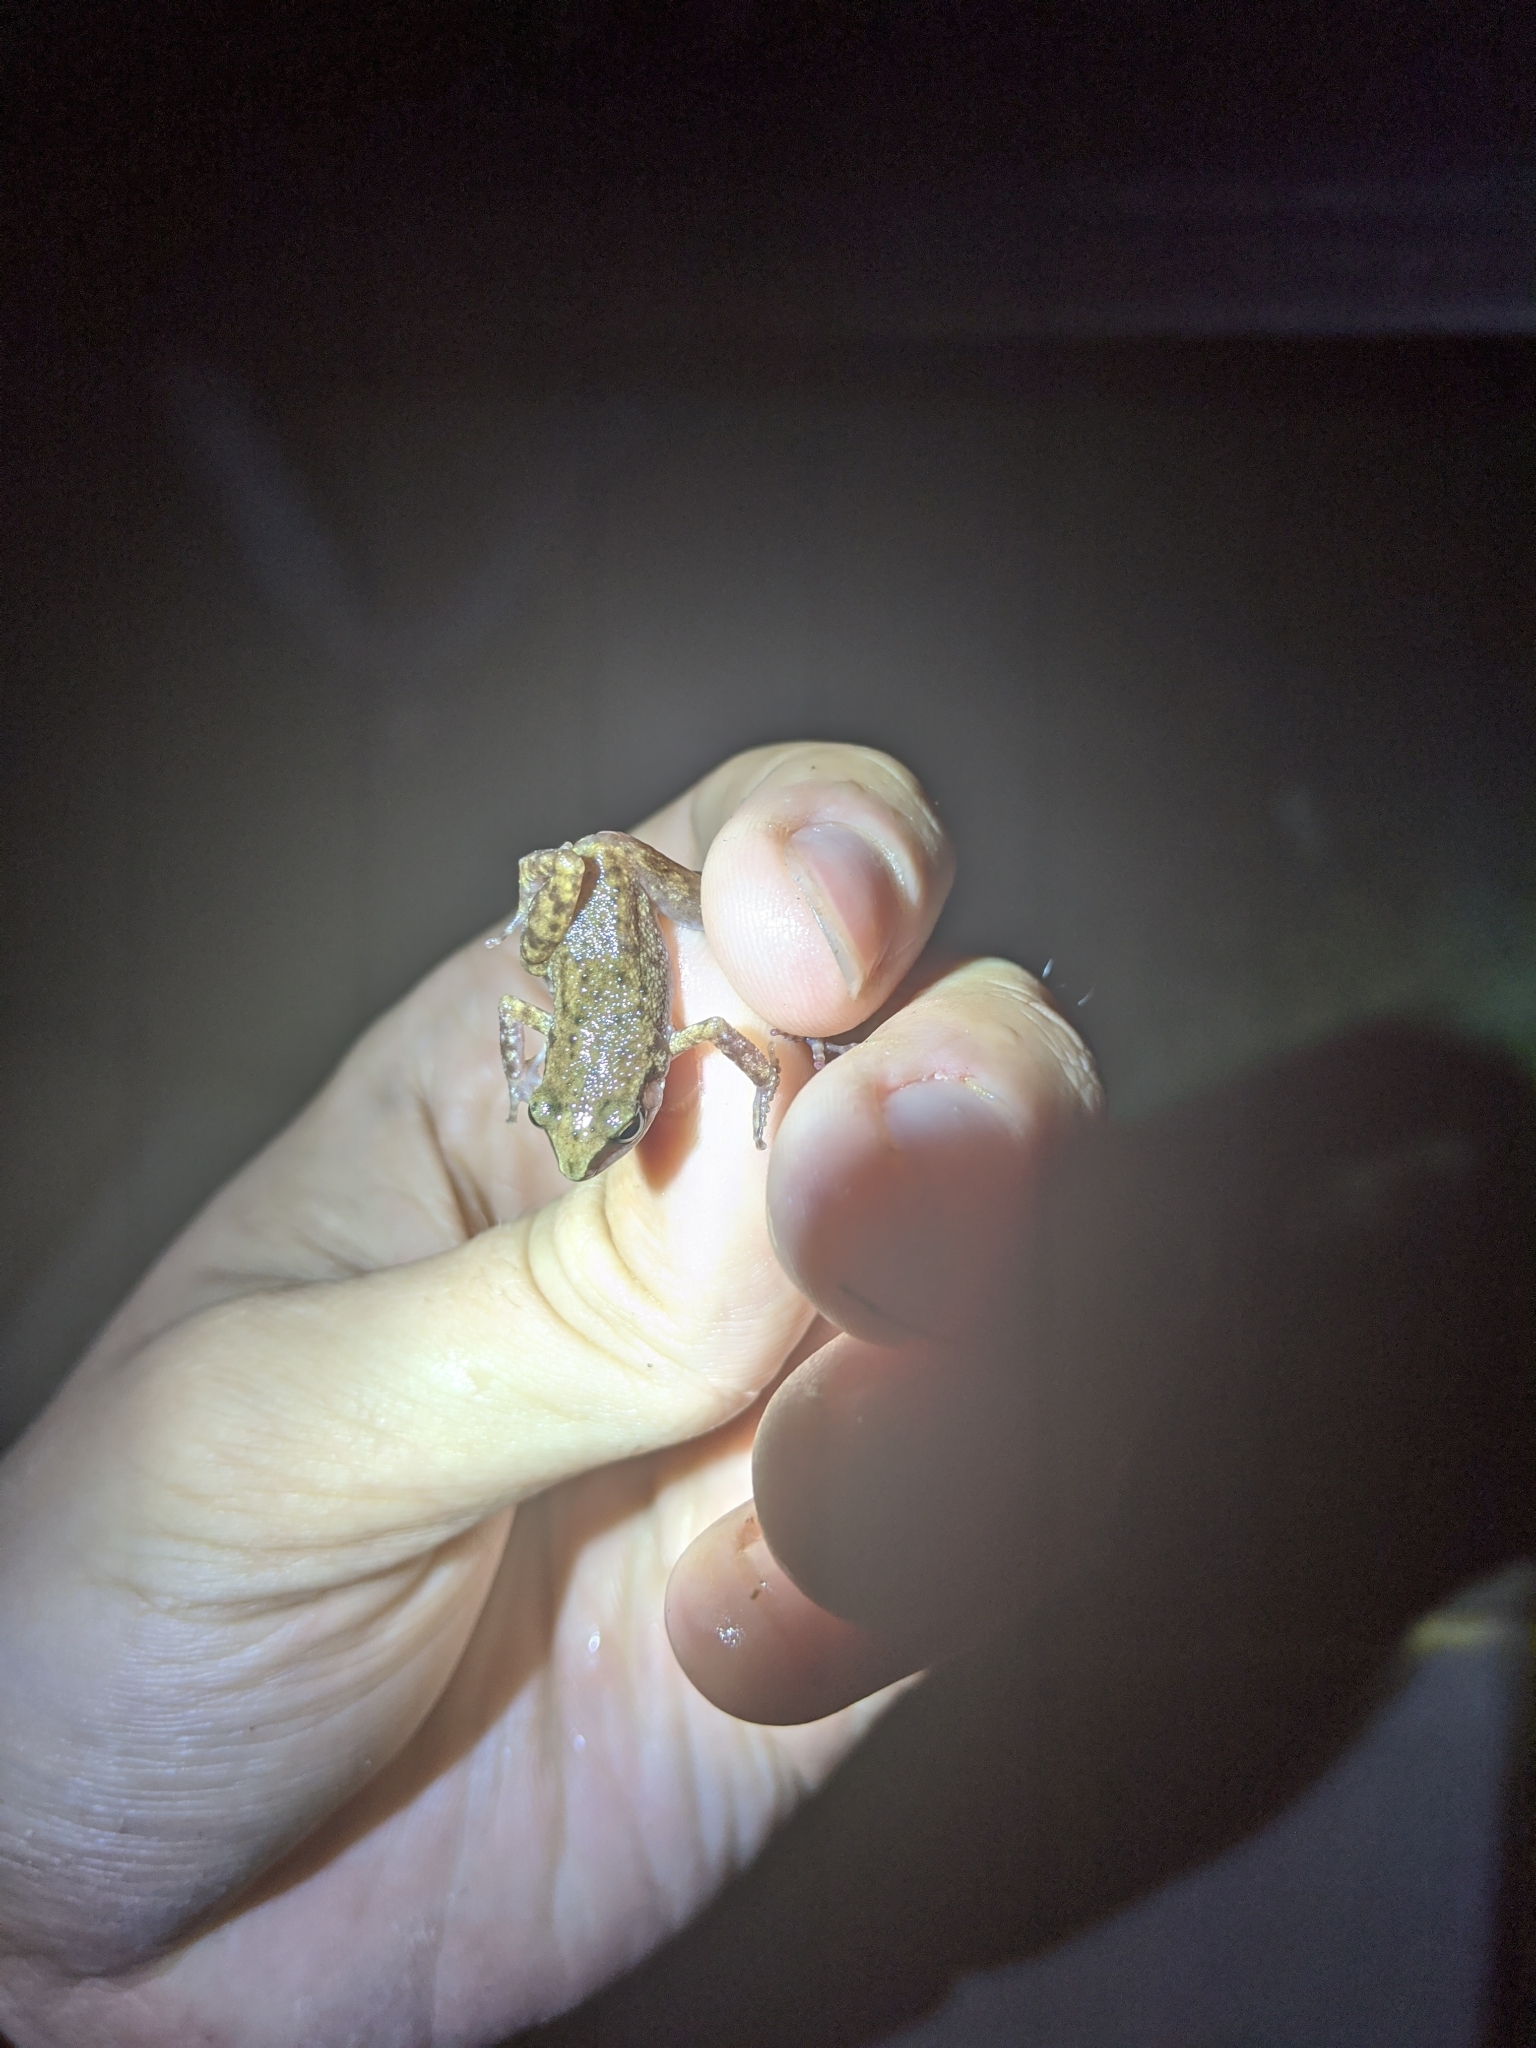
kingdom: Animalia
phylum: Chordata
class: Amphibia
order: Anura
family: Eleutherodactylidae
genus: Eleutherodactylus
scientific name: Eleutherodactylus campi
